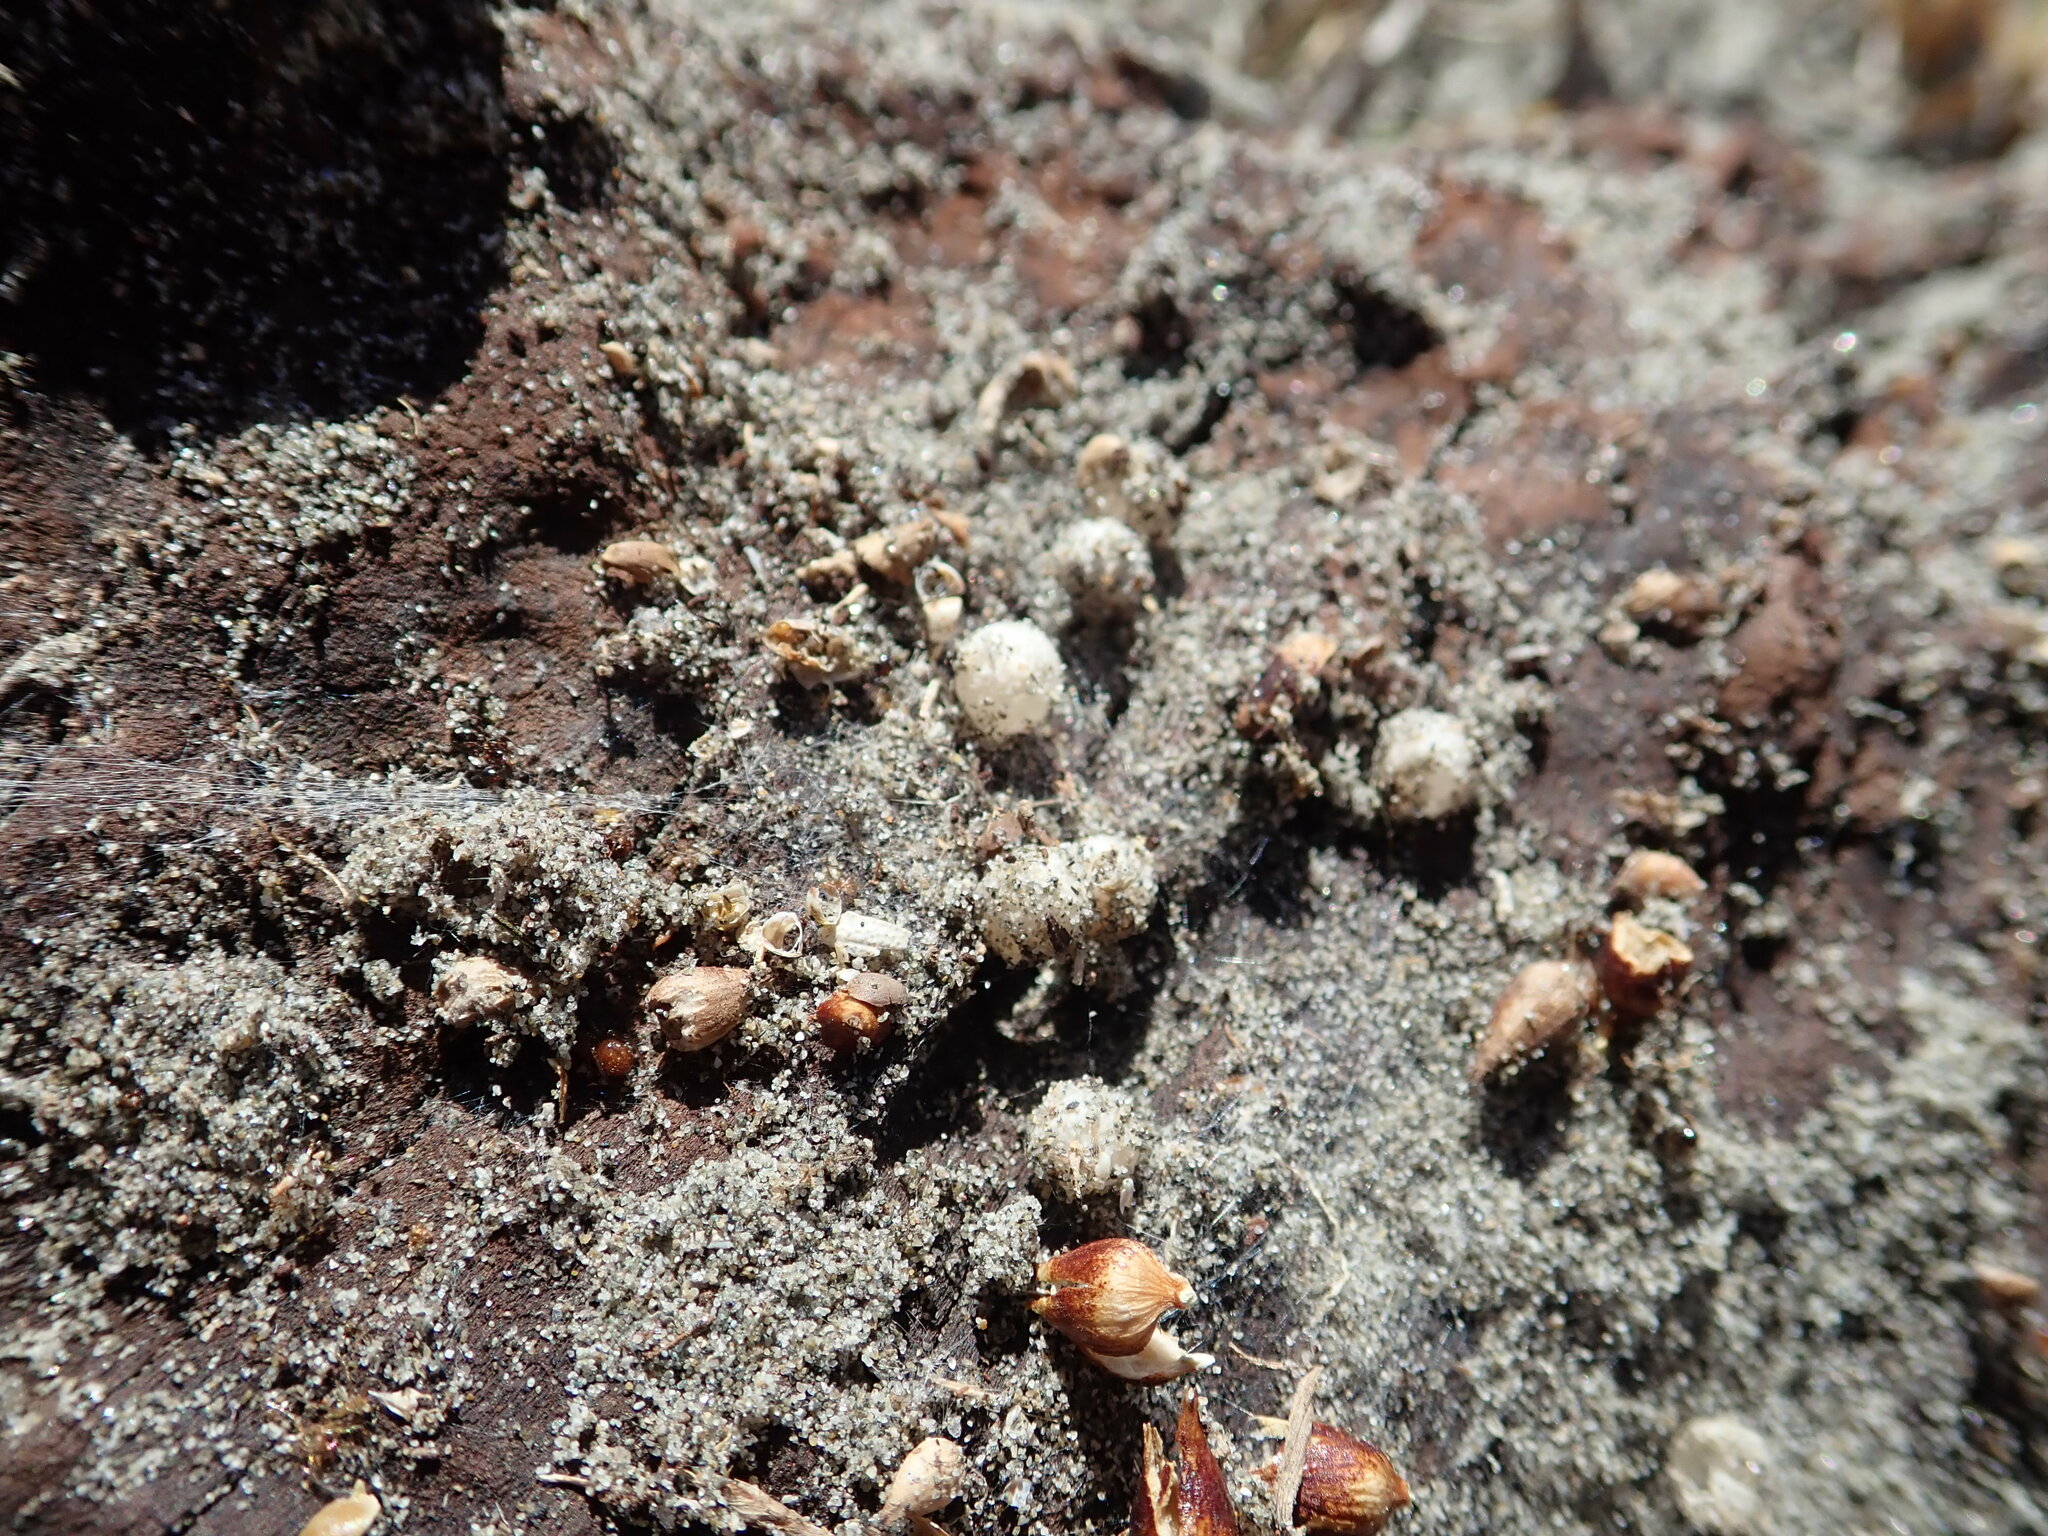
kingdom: Animalia
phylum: Arthropoda
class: Arachnida
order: Araneae
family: Theridiidae
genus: Steatoda
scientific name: Steatoda lepida
